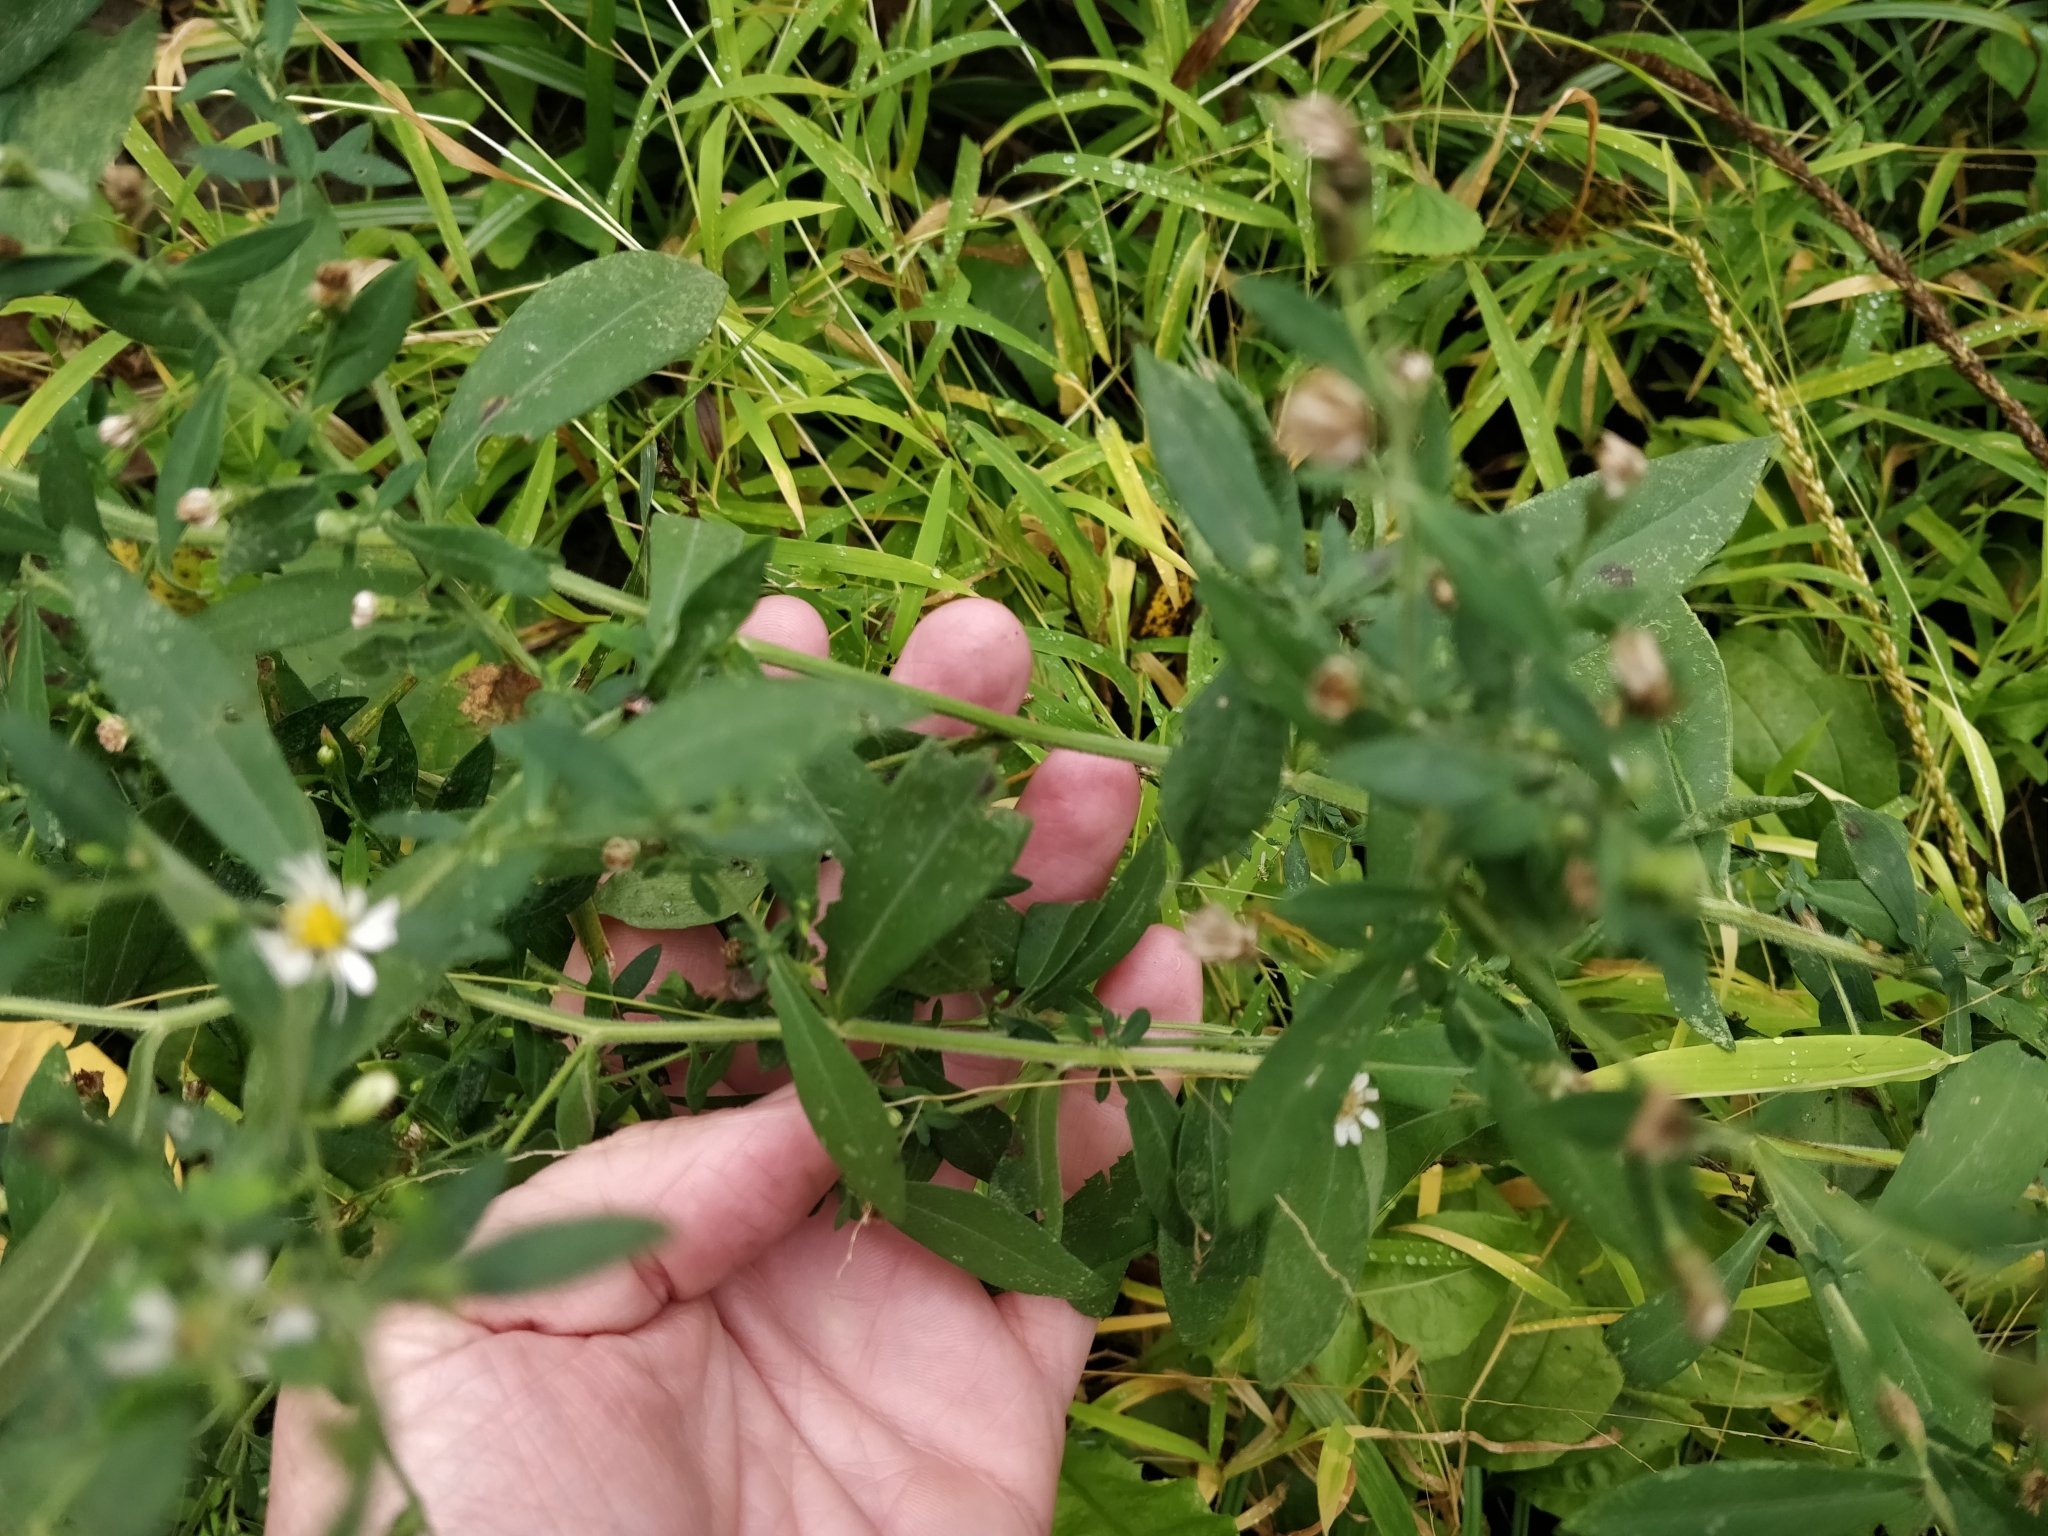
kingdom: Plantae
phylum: Tracheophyta
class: Magnoliopsida
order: Asterales
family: Asteraceae
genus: Symphyotrichum
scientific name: Symphyotrichum ontarionis
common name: Bottomland aster
